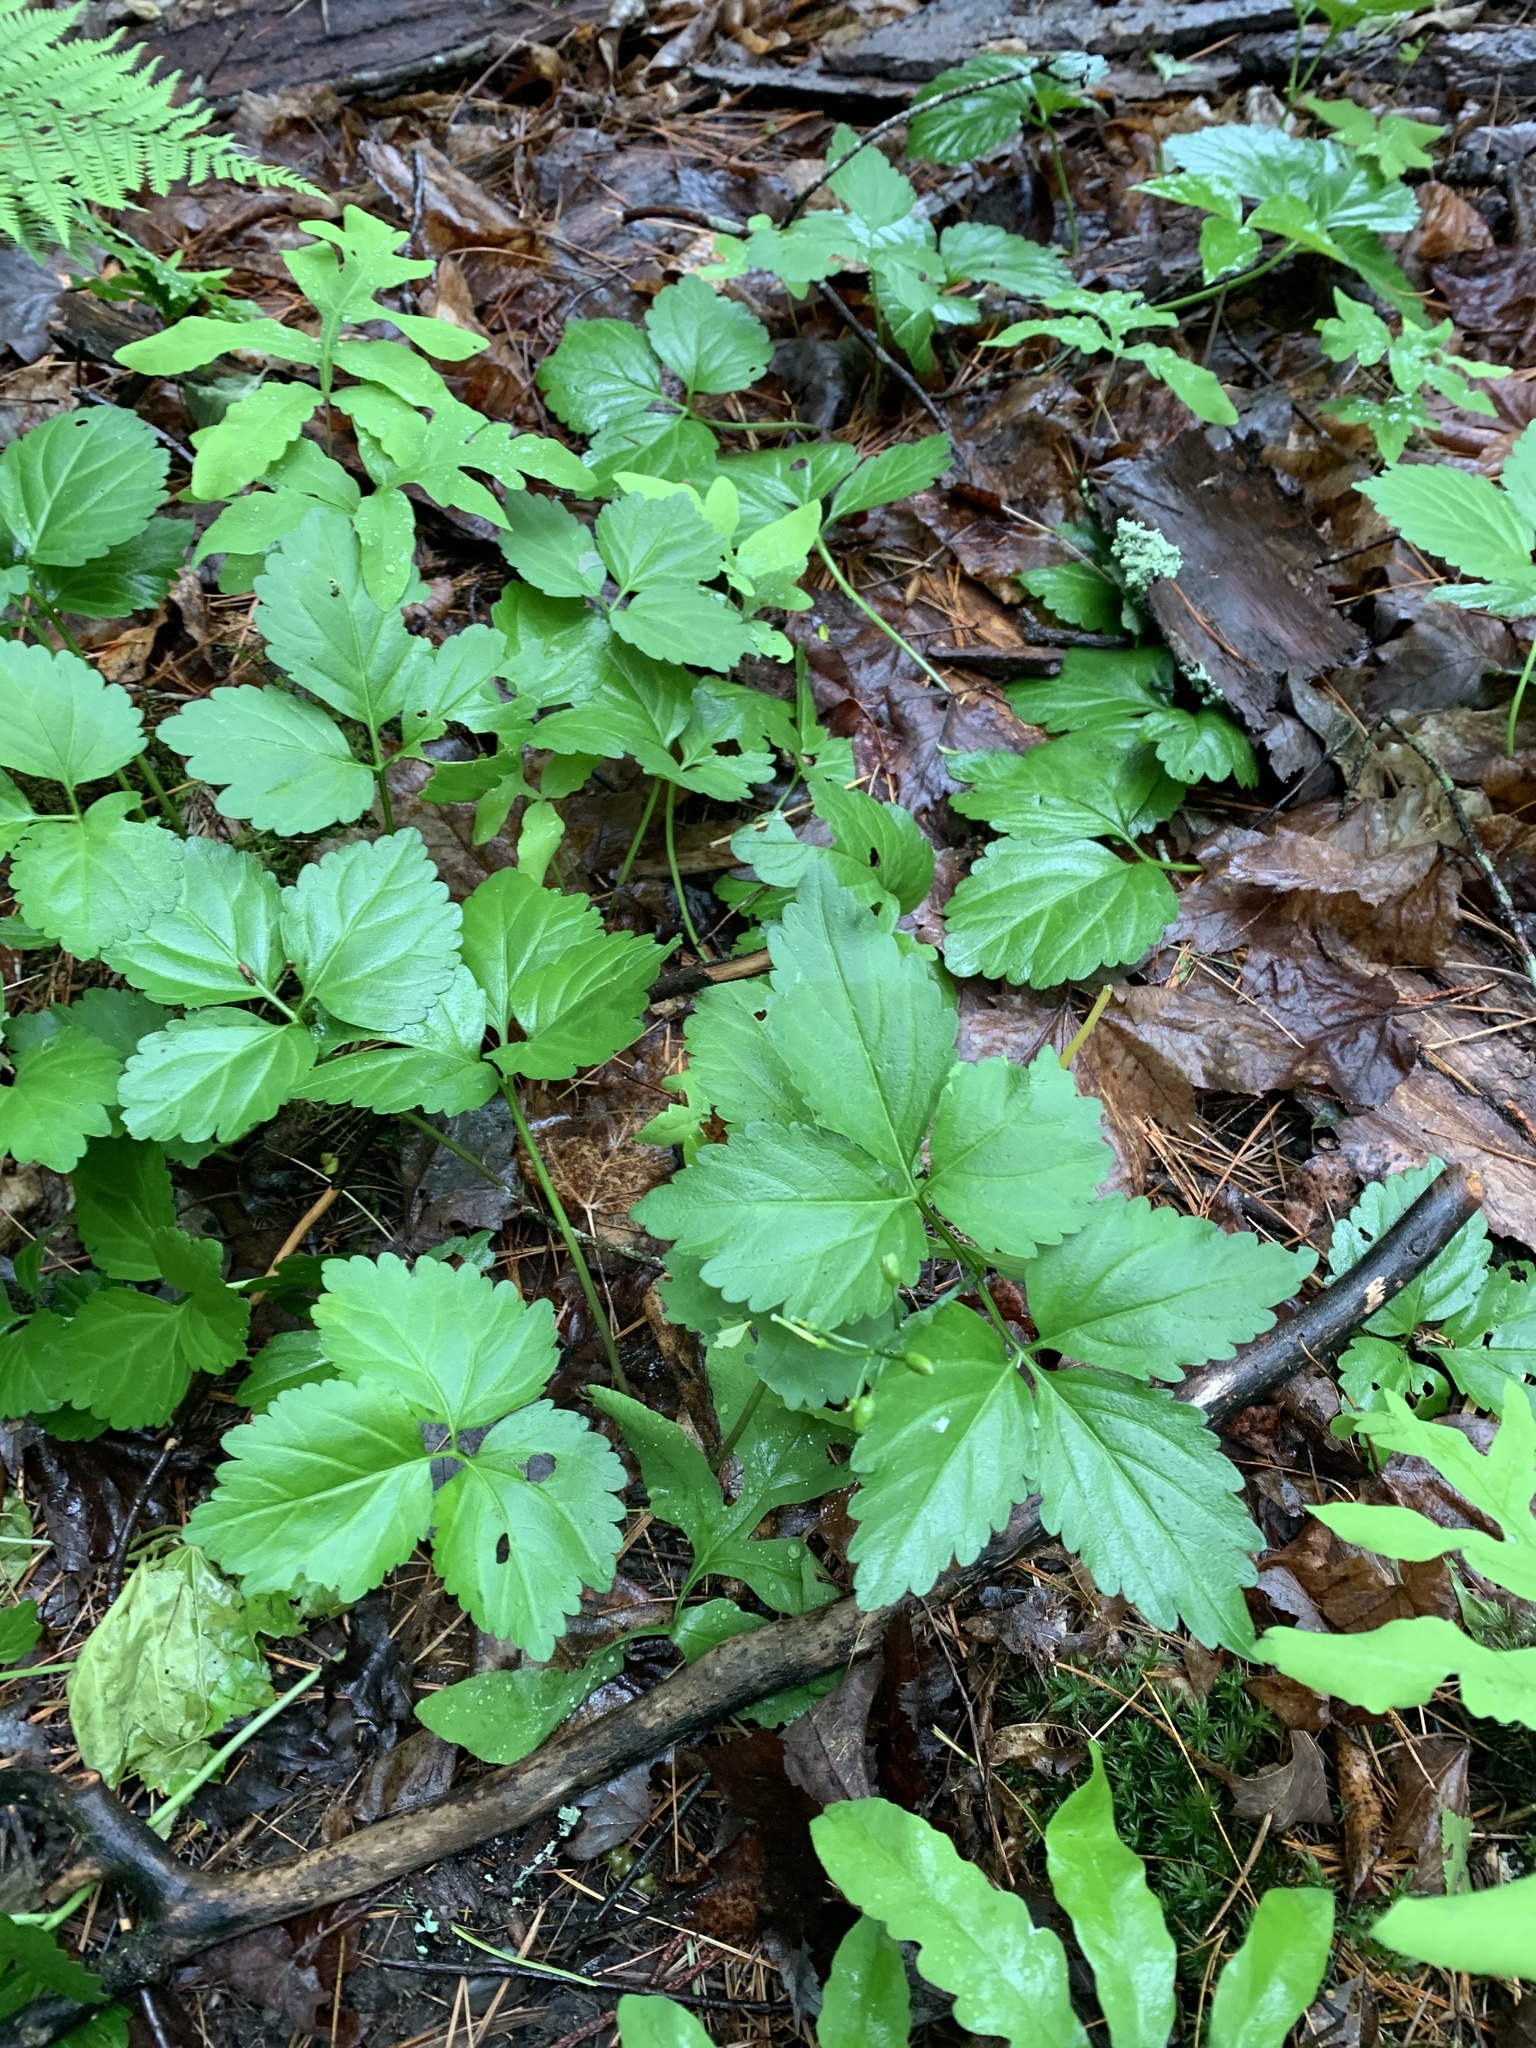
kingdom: Plantae
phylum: Tracheophyta
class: Magnoliopsida
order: Brassicales
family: Brassicaceae
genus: Cardamine
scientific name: Cardamine diphylla
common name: Broad-leaved toothwort
